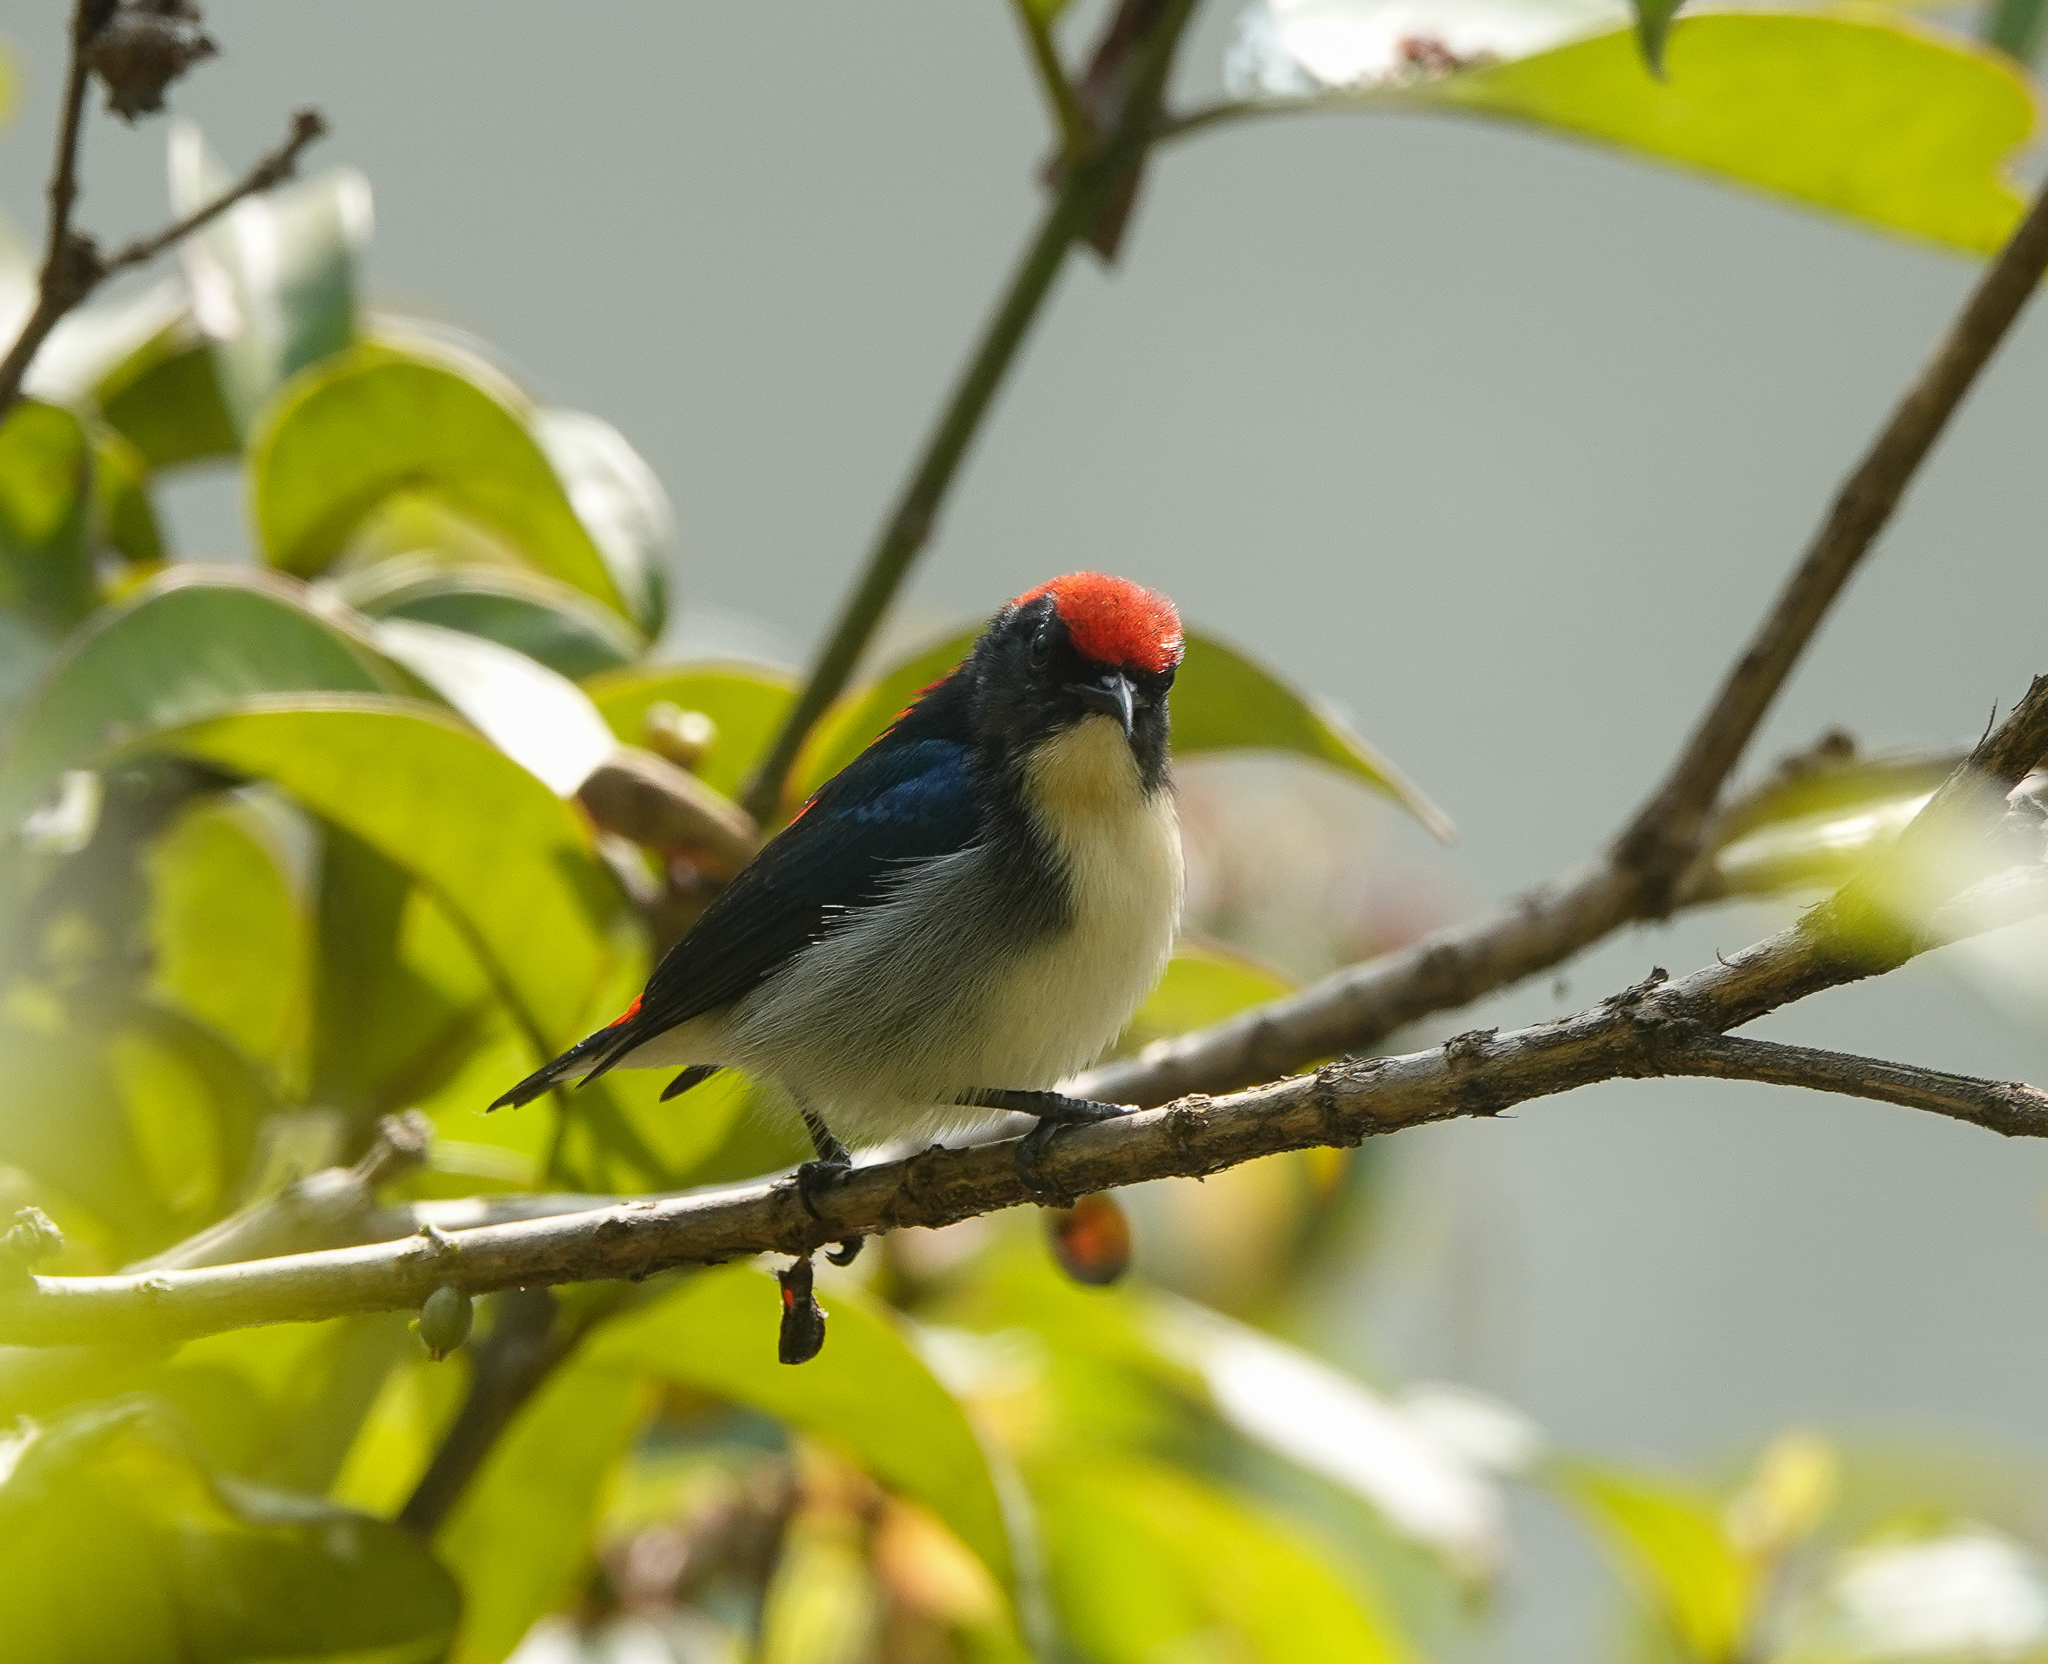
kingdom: Animalia
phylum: Chordata
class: Aves
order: Passeriformes
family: Dicaeidae
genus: Dicaeum
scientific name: Dicaeum cruentatum
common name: Scarlet-backed flowerpecker
